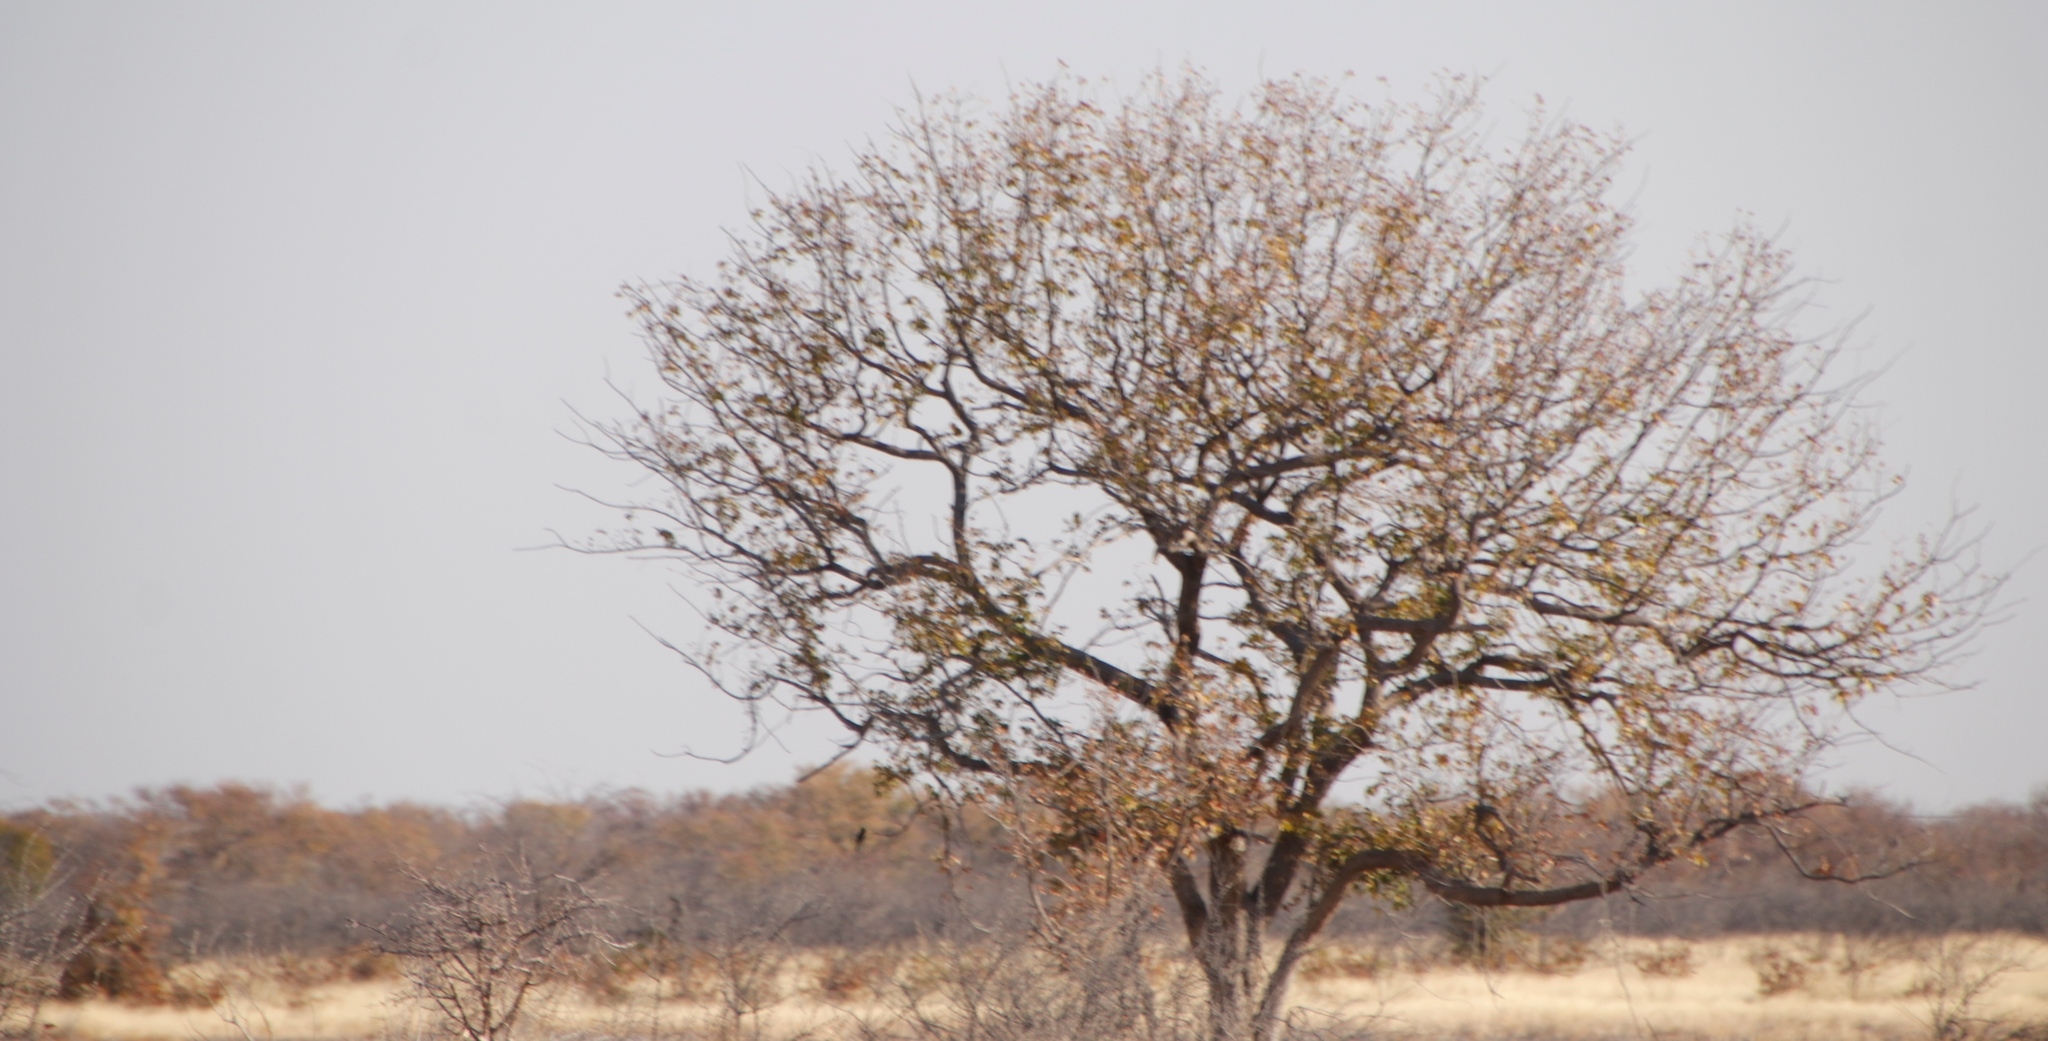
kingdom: Plantae
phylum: Tracheophyta
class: Magnoliopsida
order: Fabales
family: Fabaceae
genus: Colophospermum
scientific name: Colophospermum mopane
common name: Mopane
